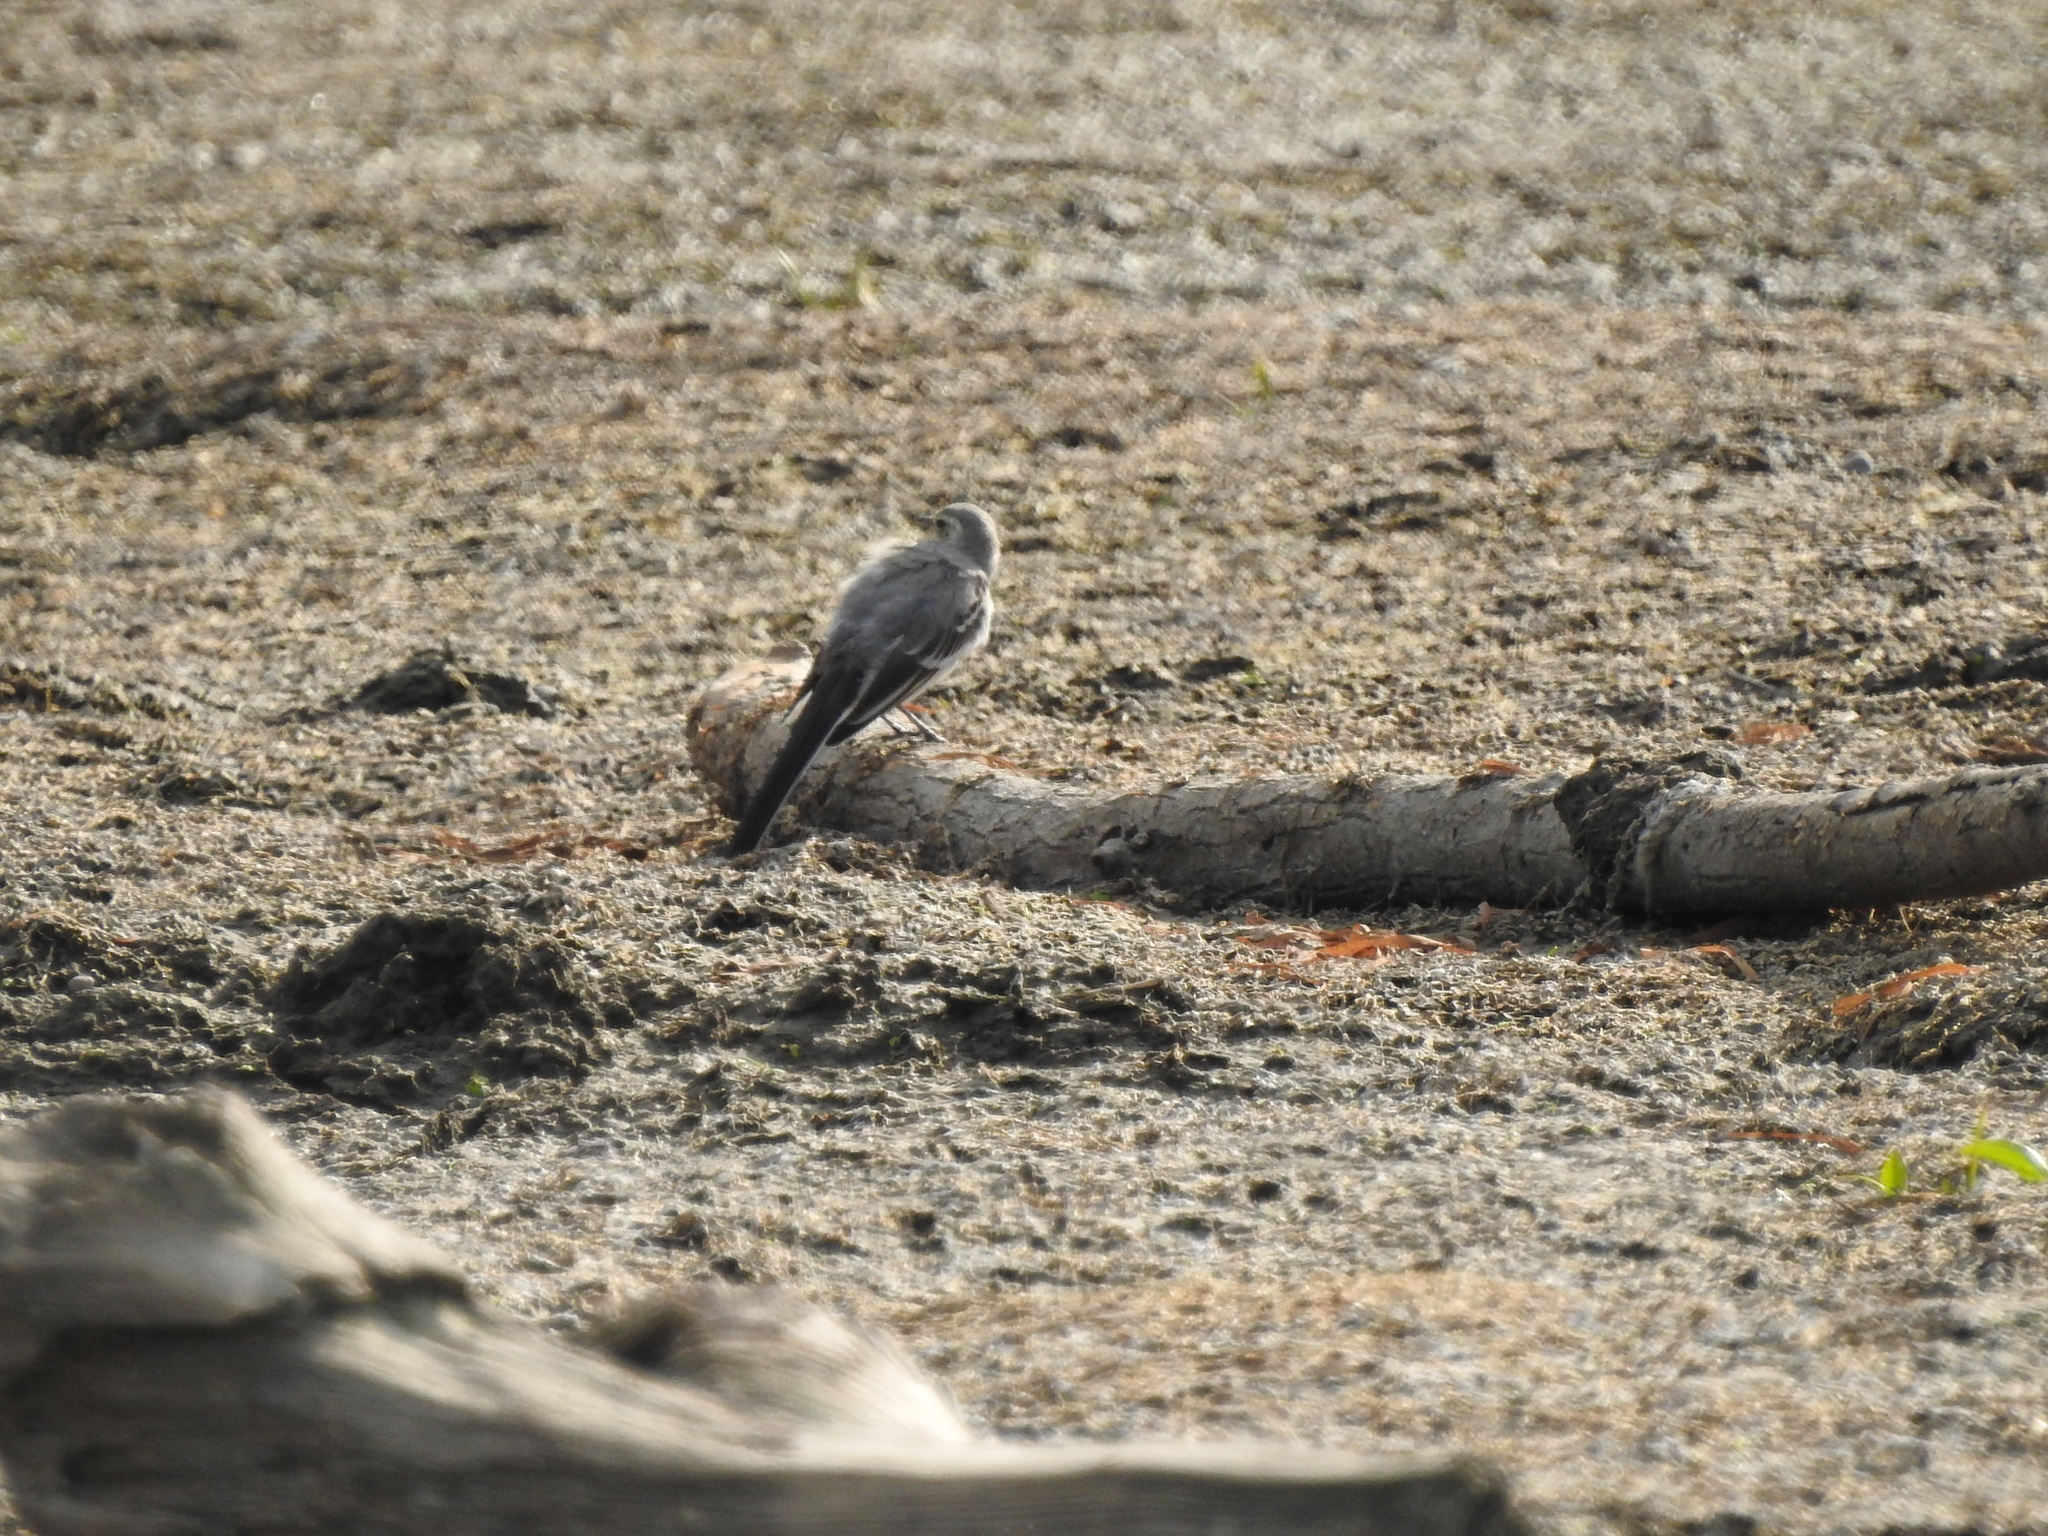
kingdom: Animalia
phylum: Chordata
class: Aves
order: Passeriformes
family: Motacillidae
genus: Motacilla
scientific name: Motacilla alba
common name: White wagtail
